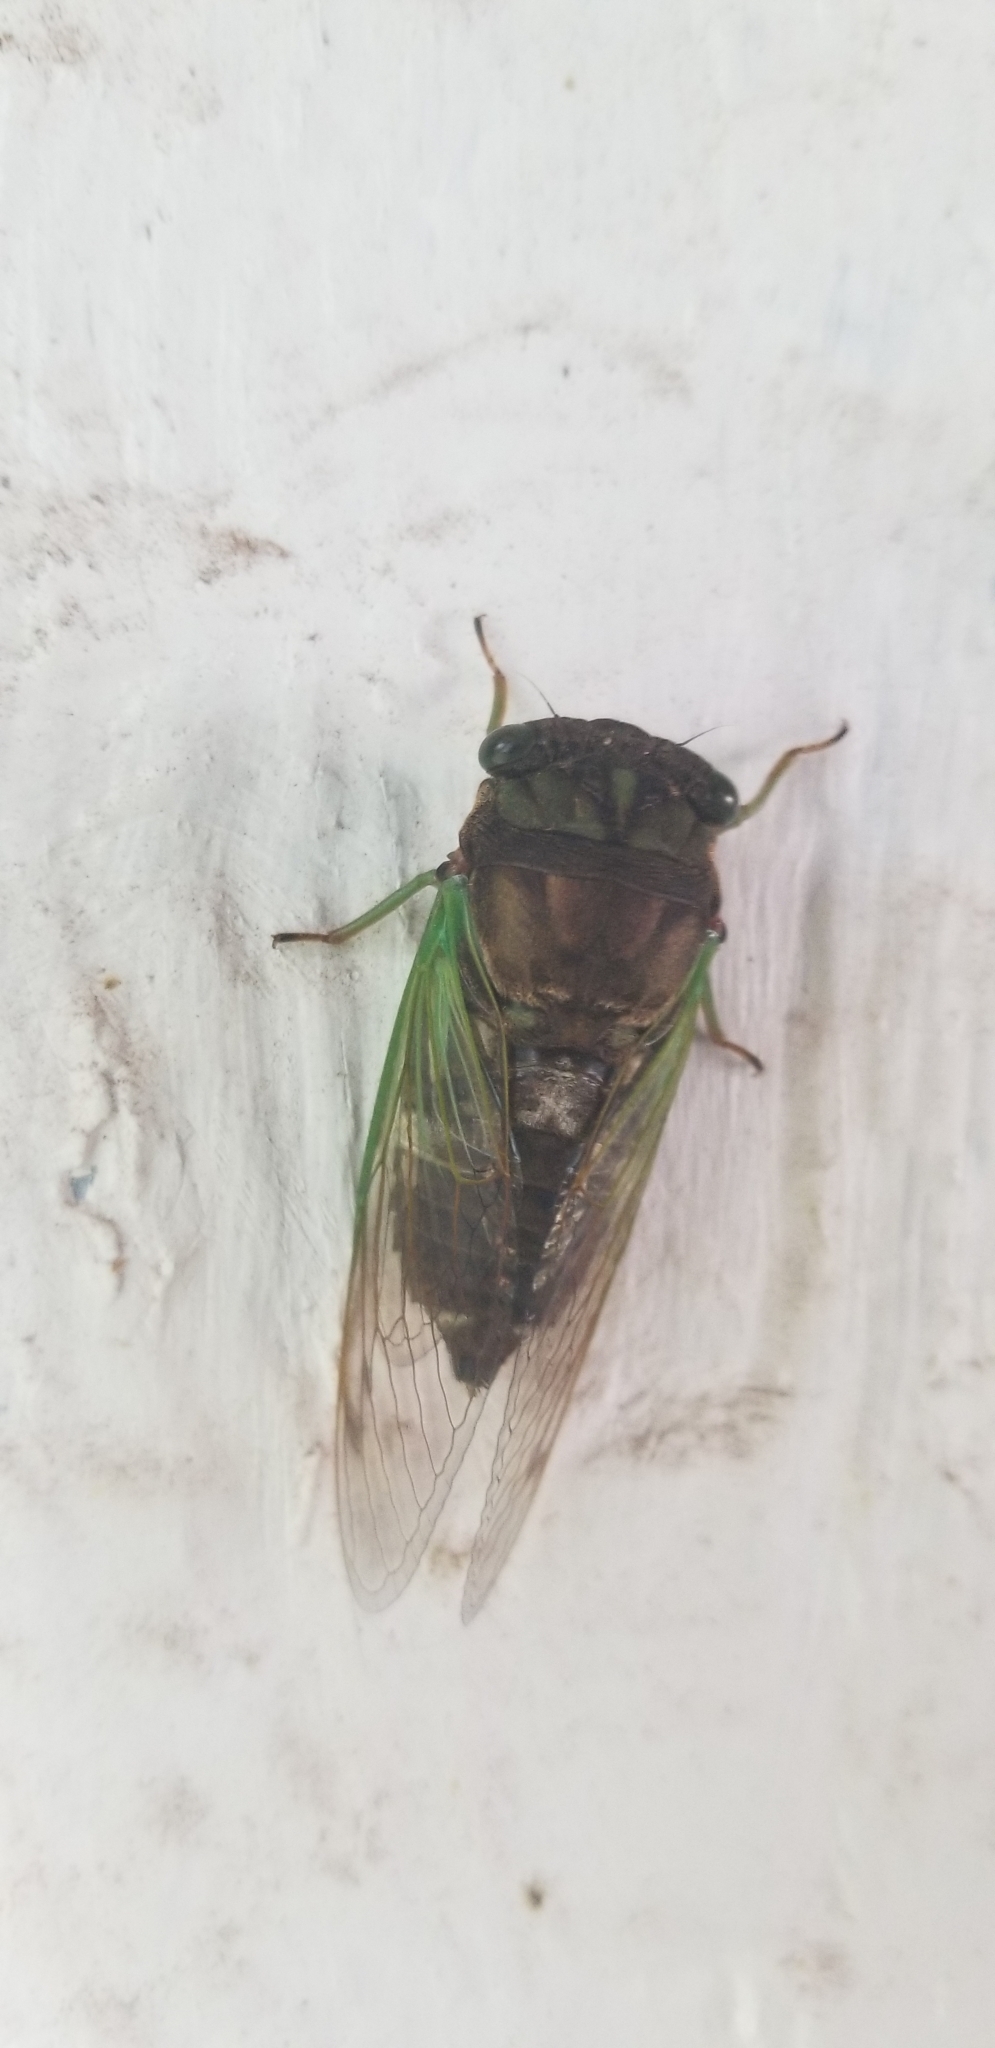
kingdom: Animalia
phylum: Arthropoda
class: Insecta
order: Hemiptera
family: Cicadidae
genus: Neotibicen
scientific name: Neotibicen tibicen
